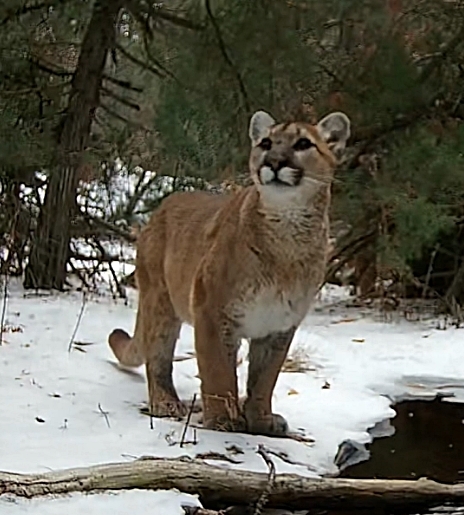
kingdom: Animalia
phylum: Chordata
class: Mammalia
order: Carnivora
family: Felidae
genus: Puma
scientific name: Puma concolor
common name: Puma
